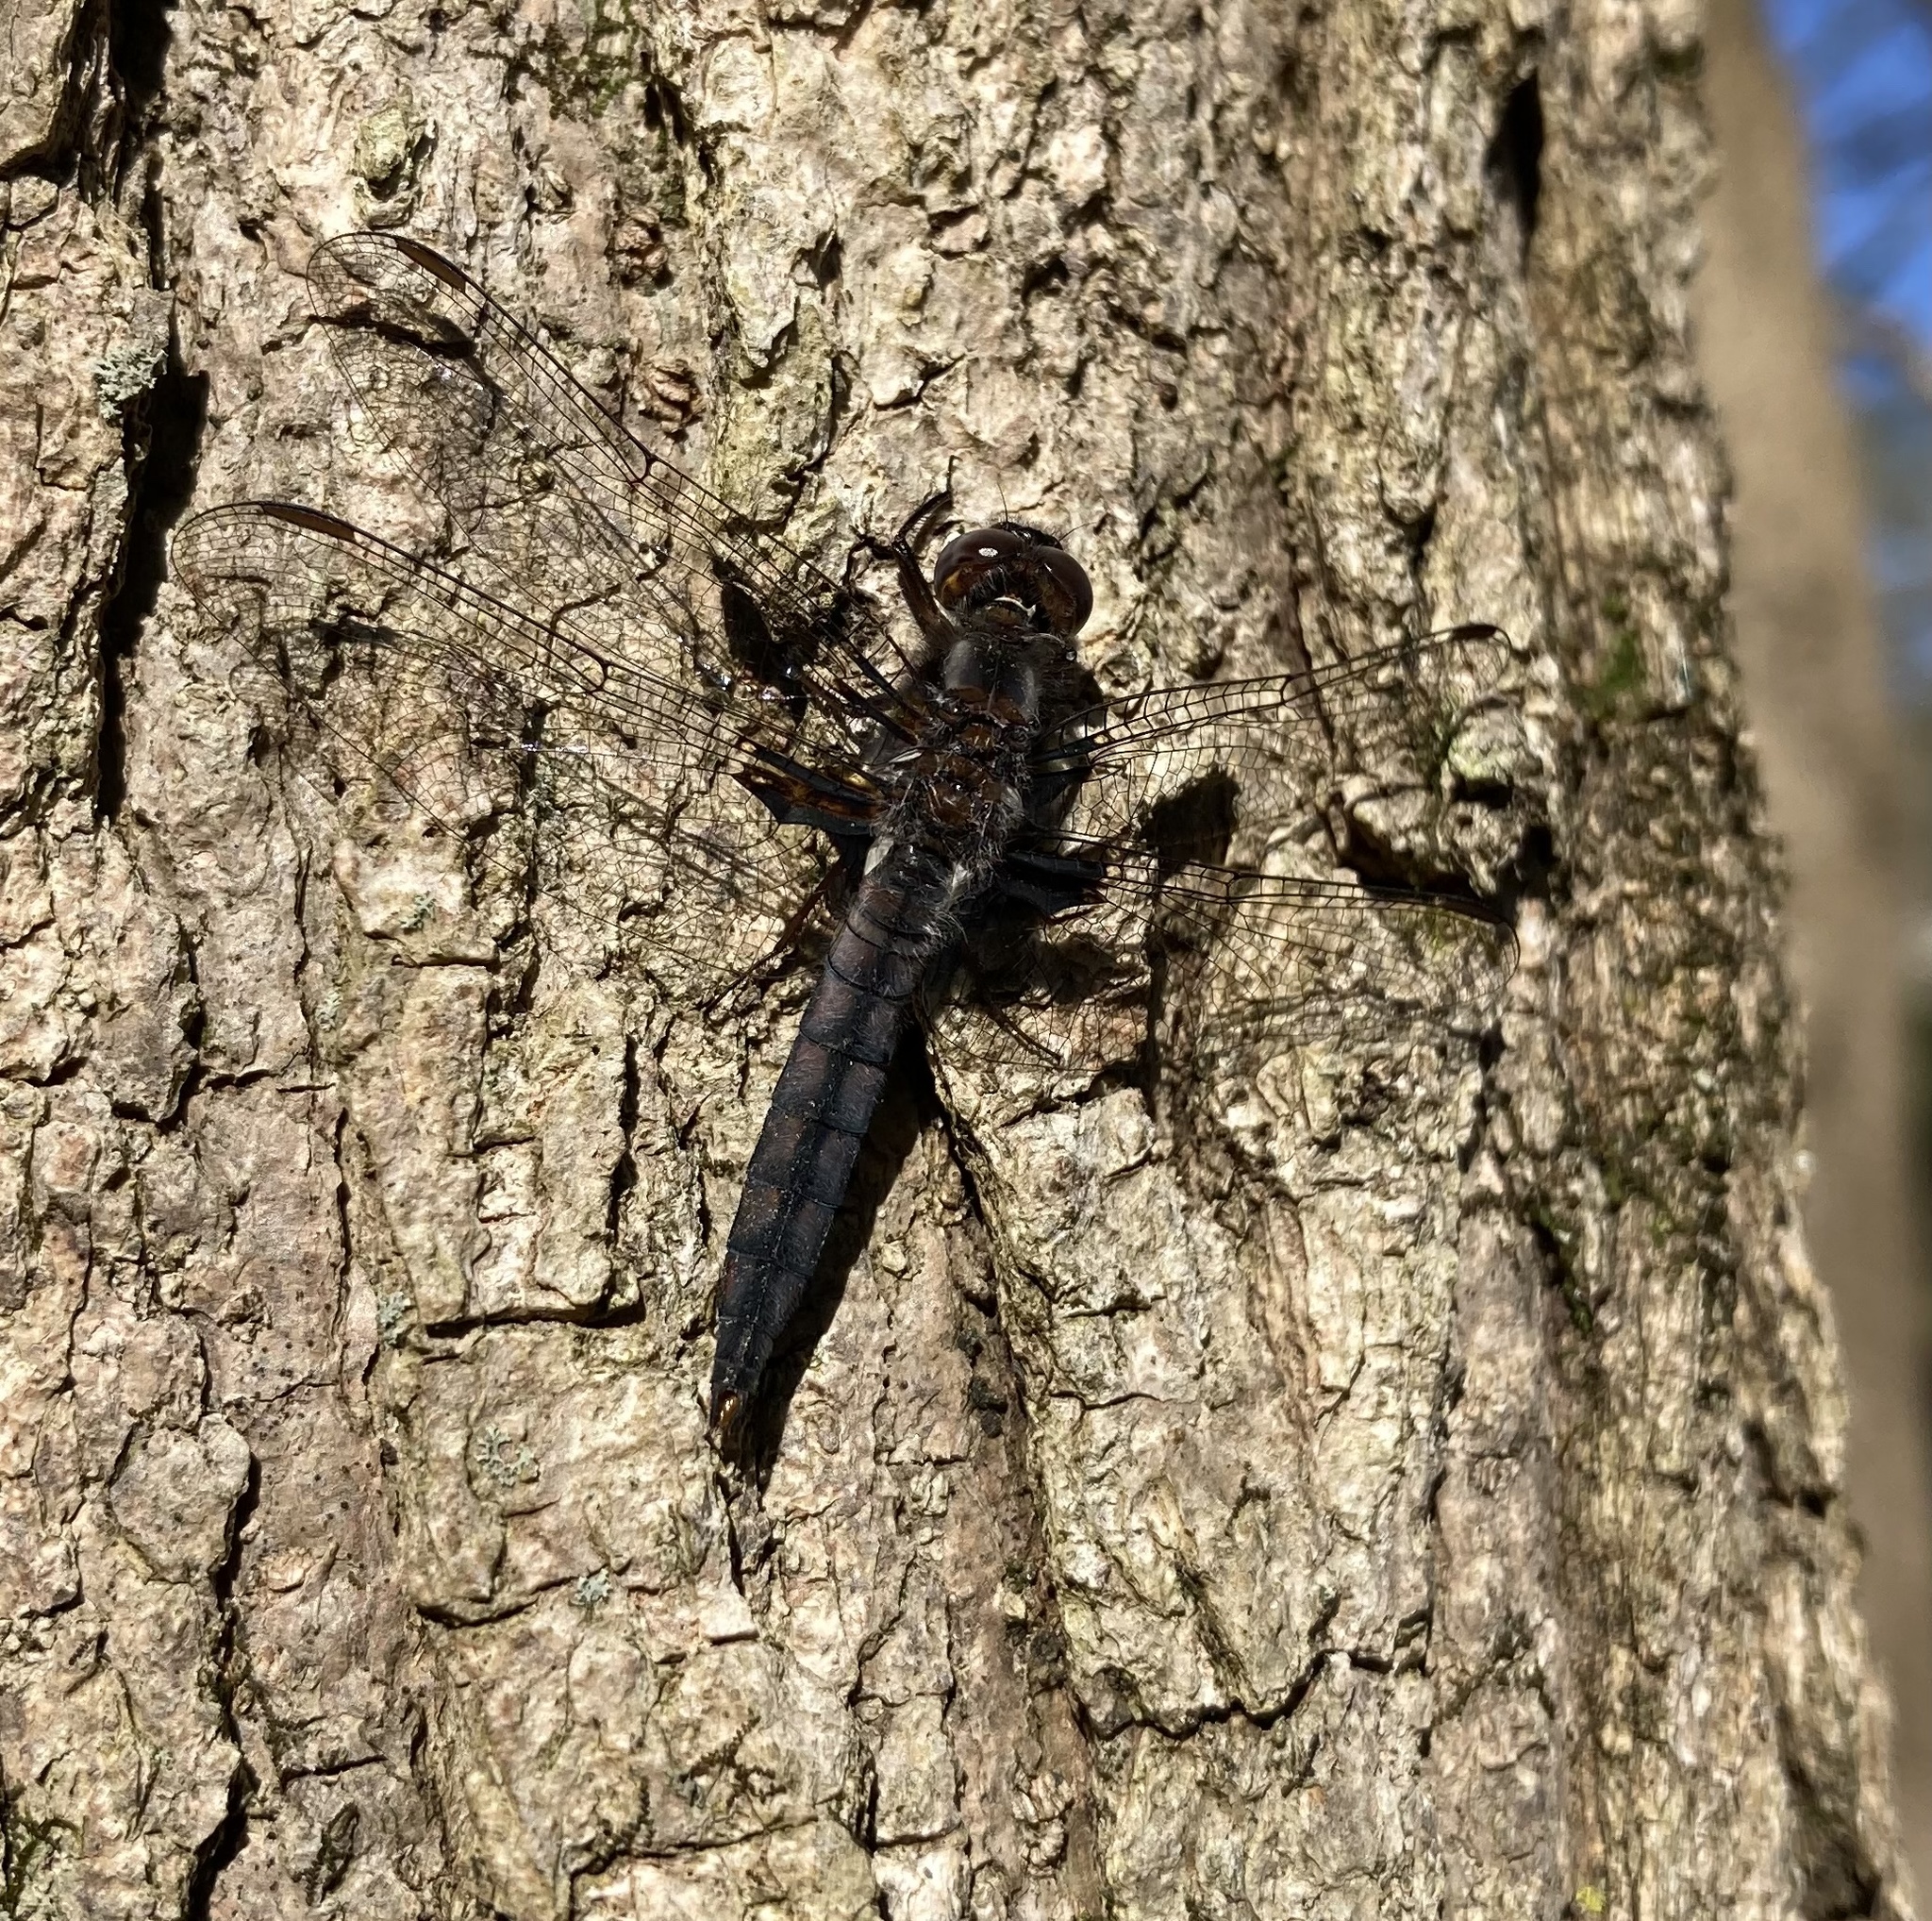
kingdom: Animalia
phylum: Arthropoda
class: Insecta
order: Odonata
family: Libellulidae
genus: Ladona
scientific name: Ladona deplanata
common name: Blue corporal
